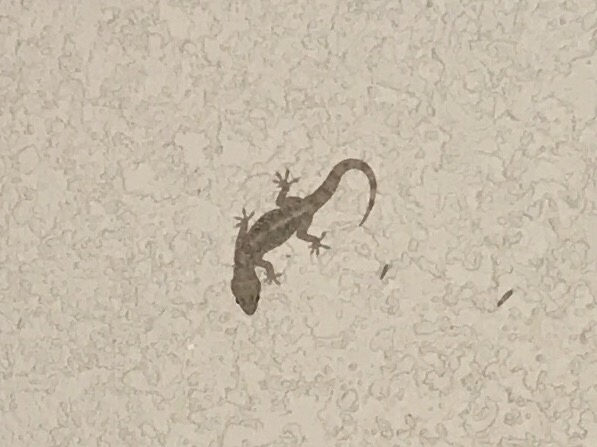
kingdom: Animalia
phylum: Chordata
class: Squamata
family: Gekkonidae
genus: Hemidactylus
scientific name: Hemidactylus turcicus
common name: Turkish gecko
